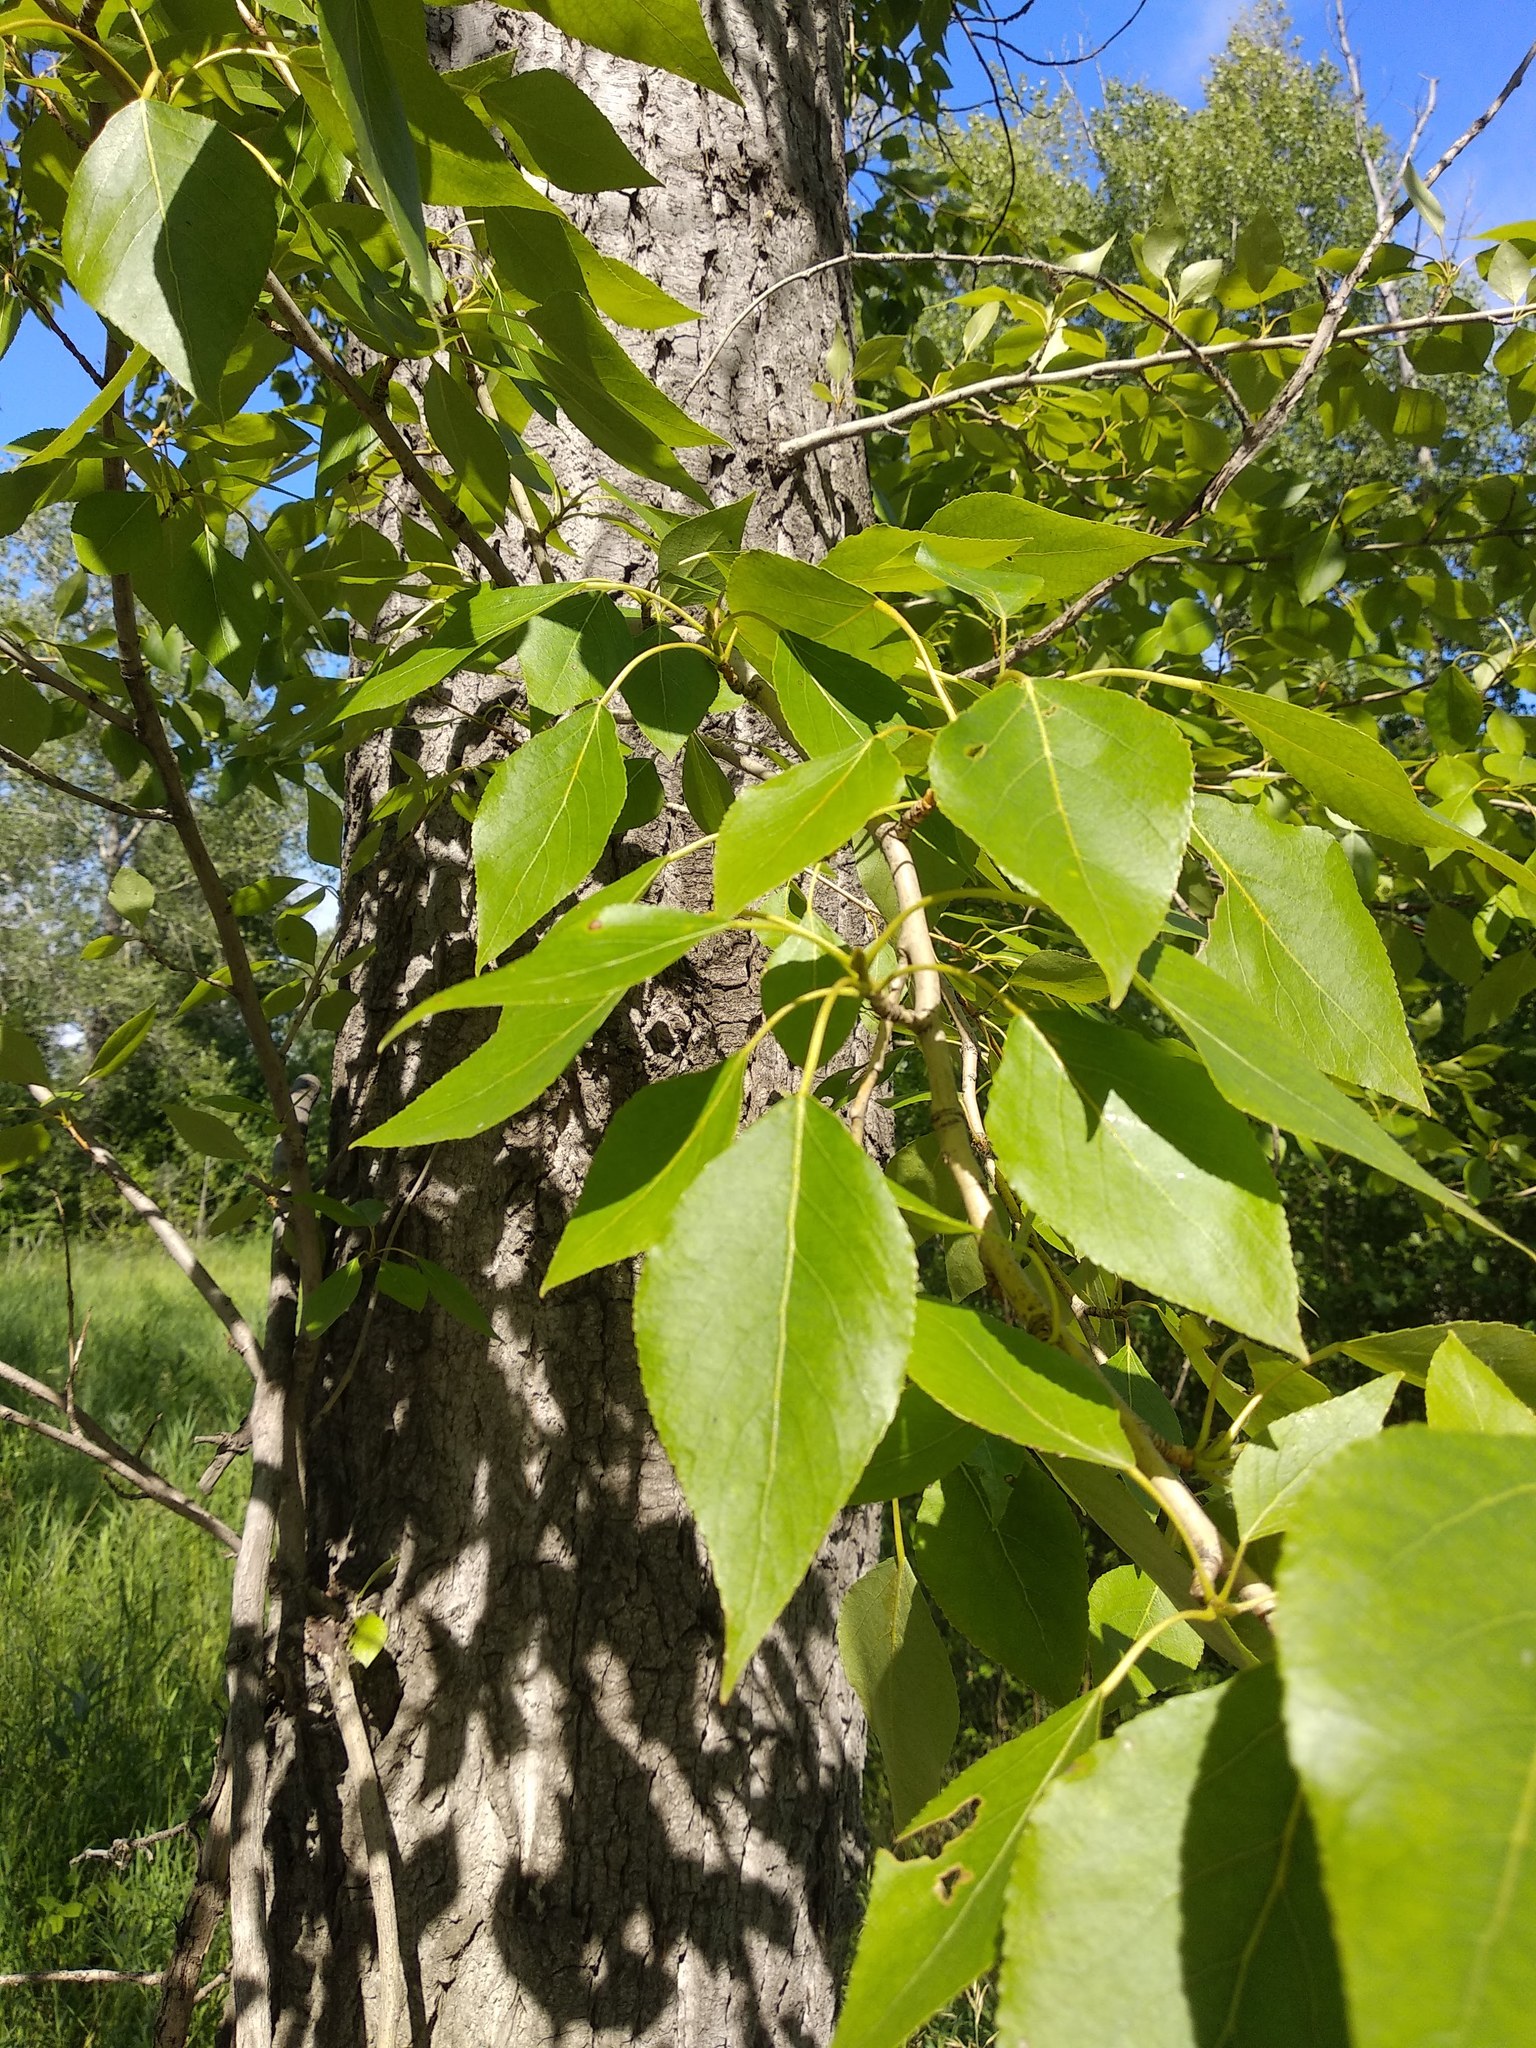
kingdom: Plantae
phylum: Tracheophyta
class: Magnoliopsida
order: Malpighiales
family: Salicaceae
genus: Populus
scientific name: Populus nigra
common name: Black poplar
